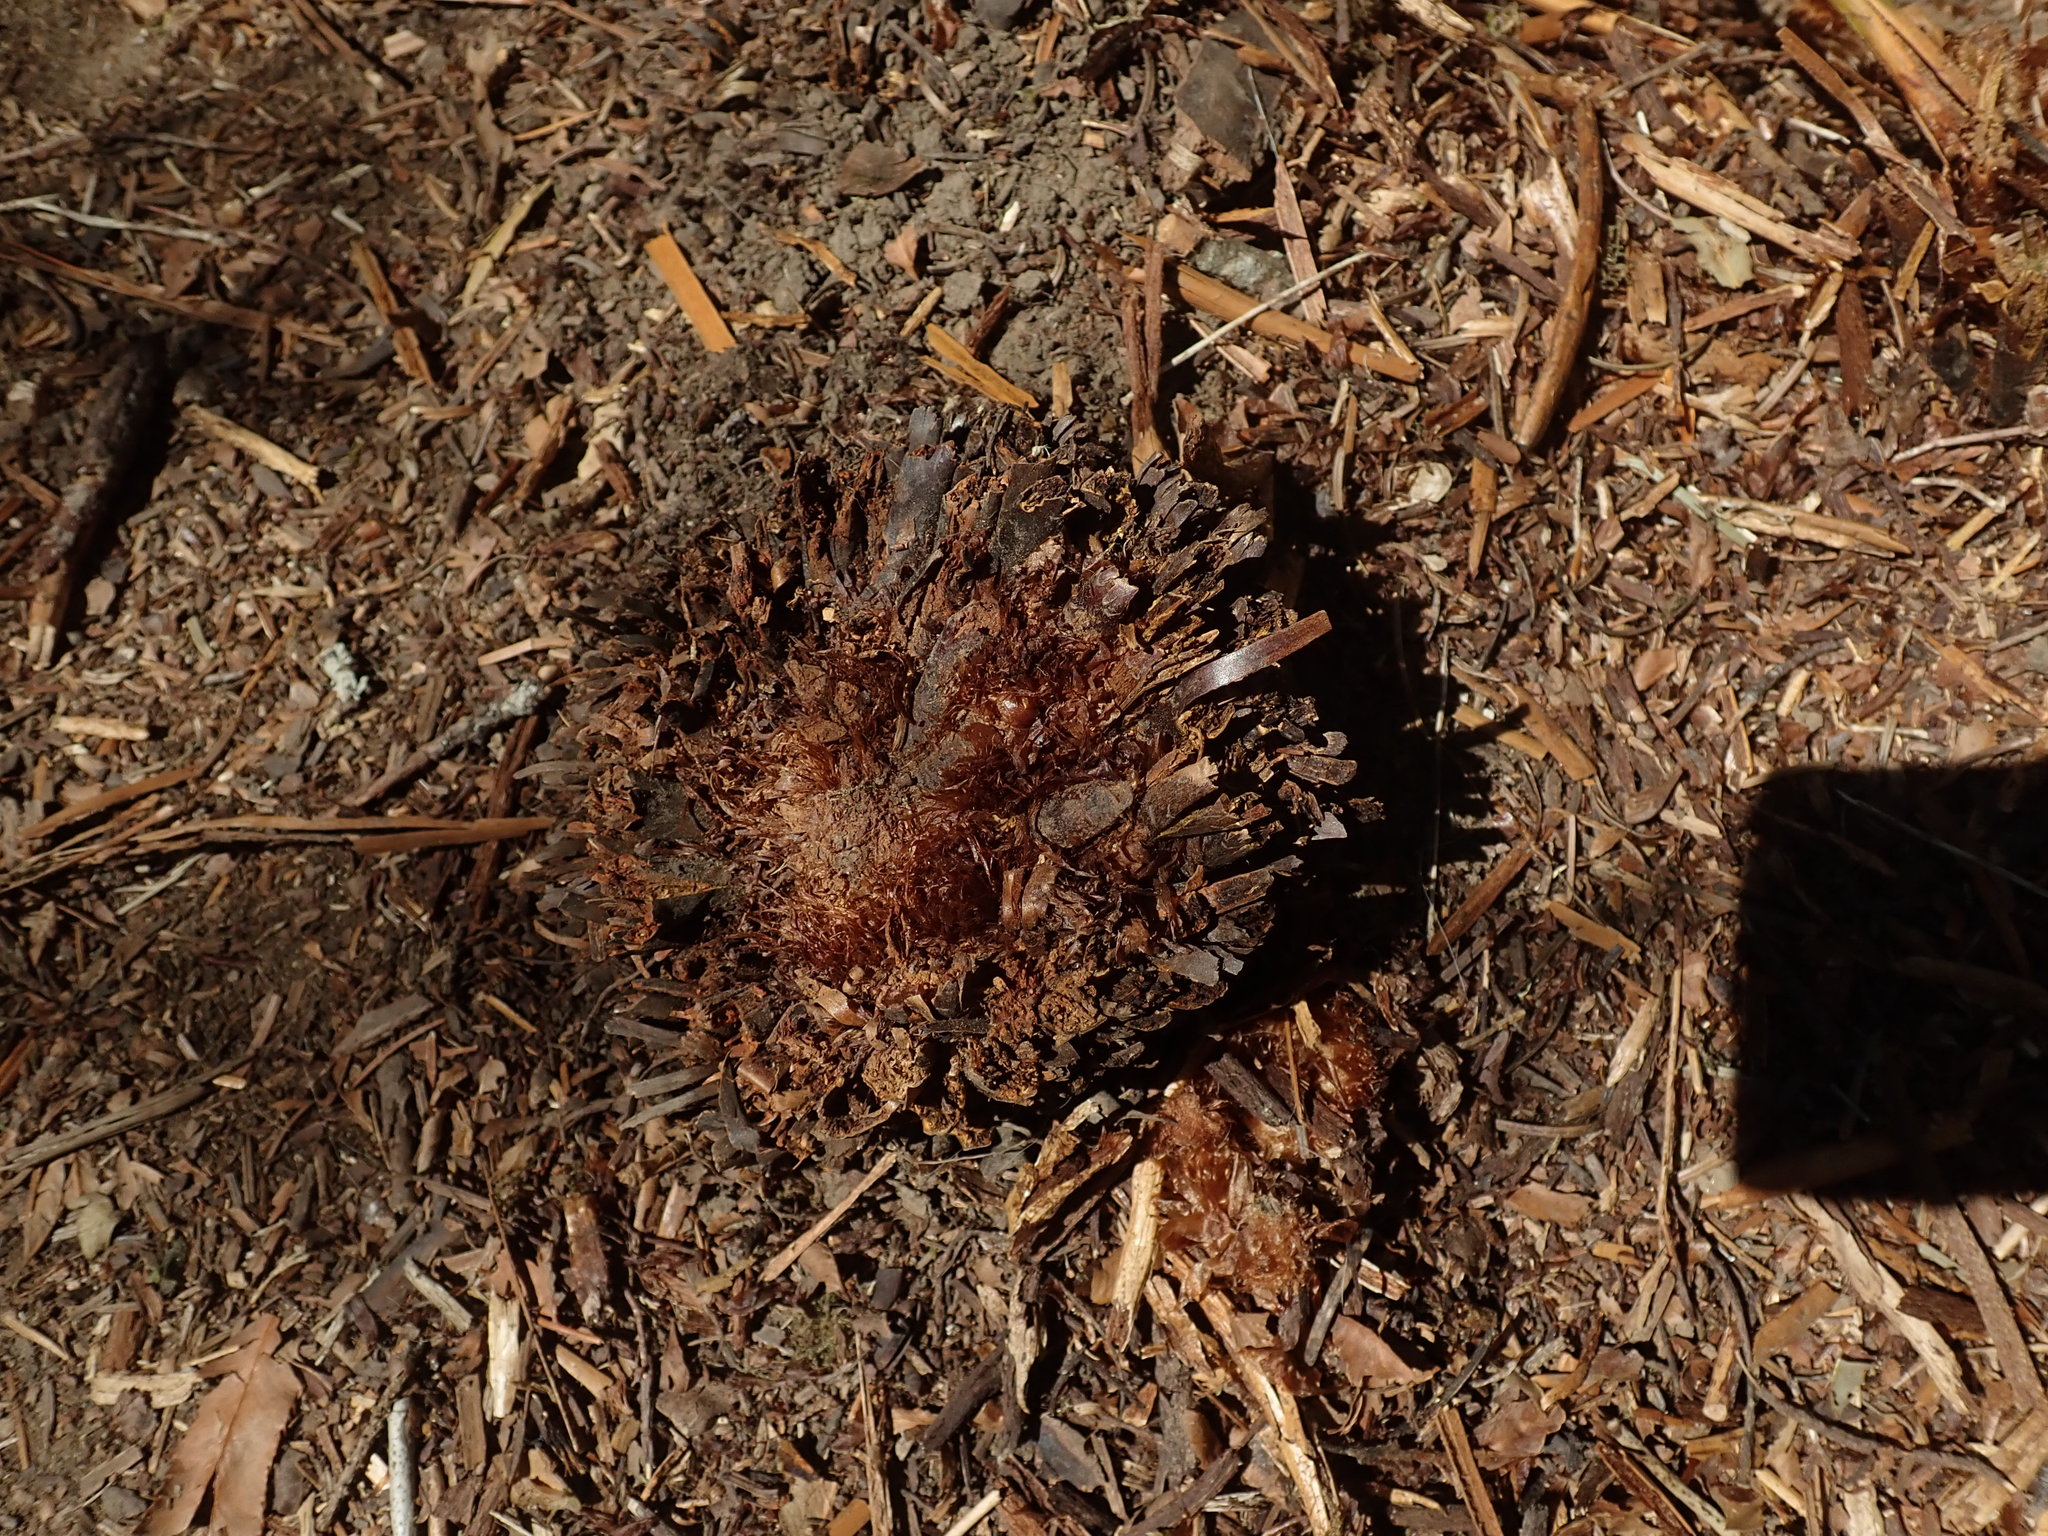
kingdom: Plantae
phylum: Tracheophyta
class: Polypodiopsida
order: Polypodiales
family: Dryopteridaceae
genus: Polystichum
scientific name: Polystichum munitum
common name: Western sword-fern
